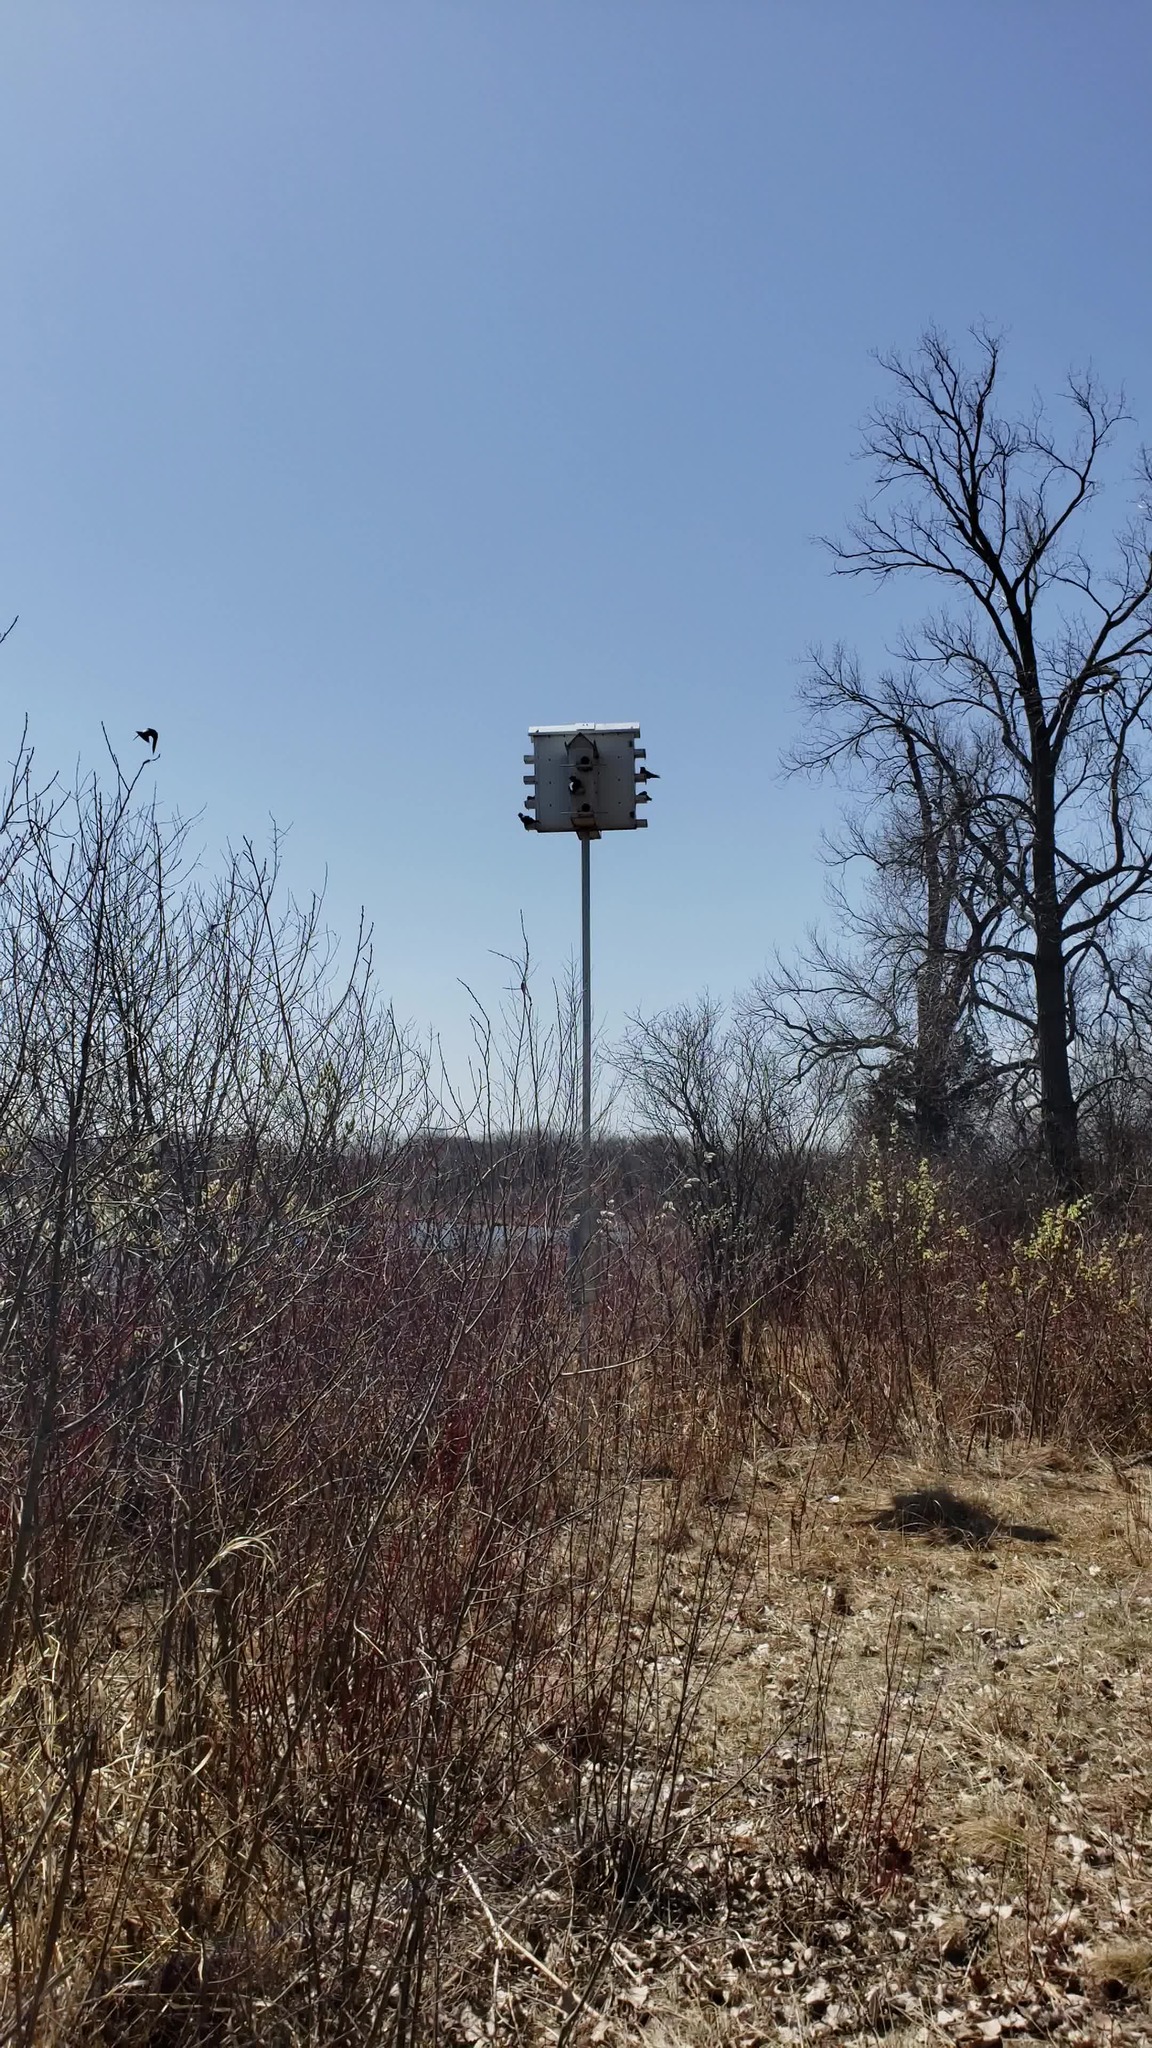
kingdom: Animalia
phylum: Chordata
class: Aves
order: Passeriformes
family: Hirundinidae
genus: Progne
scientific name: Progne subis
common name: Purple martin
